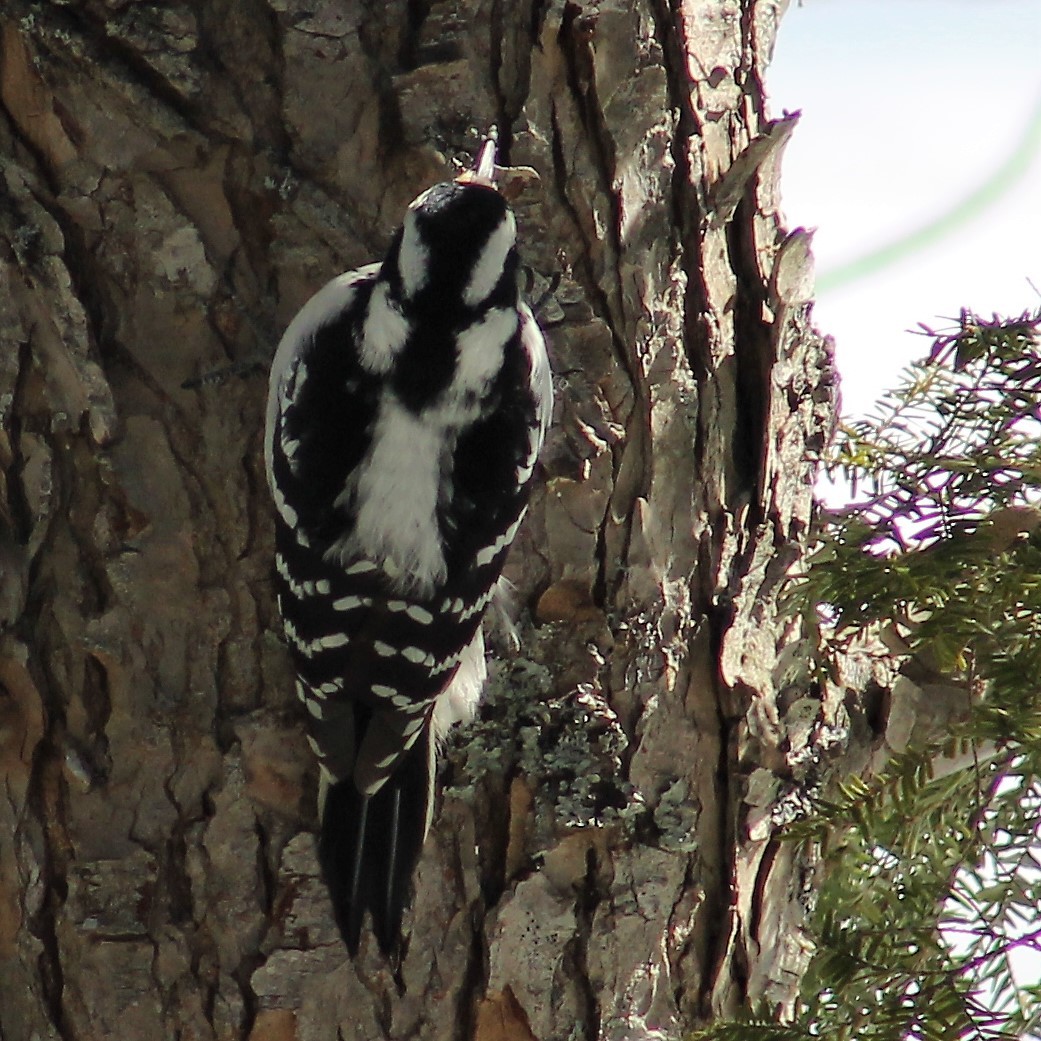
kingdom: Animalia
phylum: Chordata
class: Aves
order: Piciformes
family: Picidae
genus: Leuconotopicus
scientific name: Leuconotopicus villosus
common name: Hairy woodpecker
